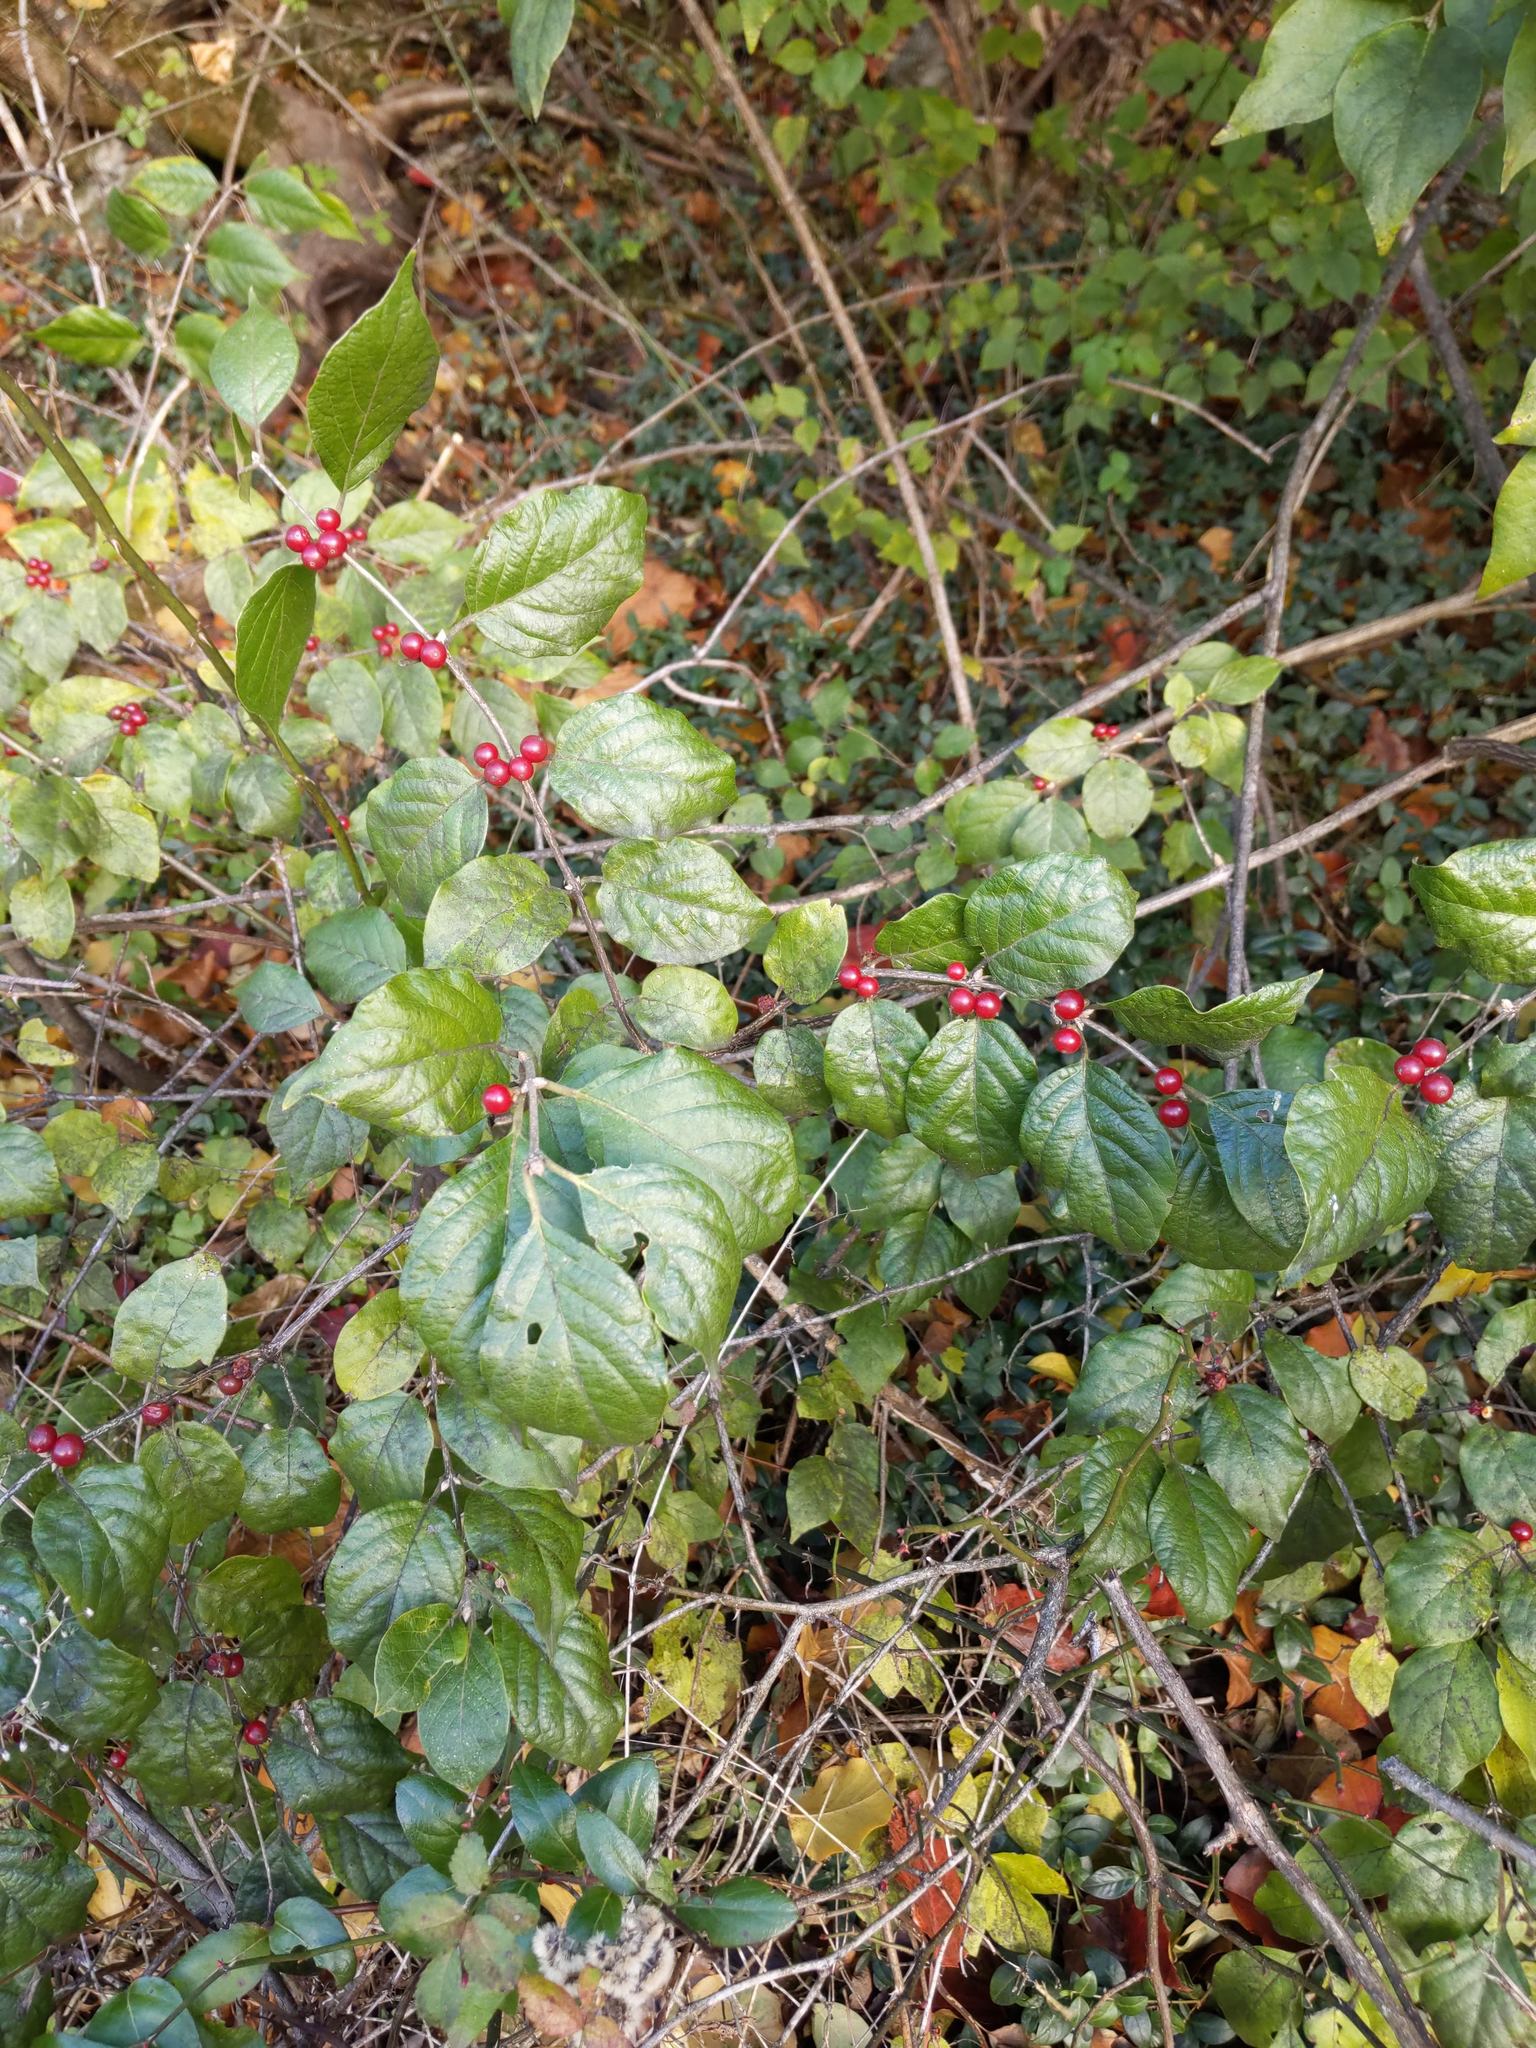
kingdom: Plantae
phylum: Tracheophyta
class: Magnoliopsida
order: Dipsacales
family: Caprifoliaceae
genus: Lonicera
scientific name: Lonicera maackii
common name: Amur honeysuckle
